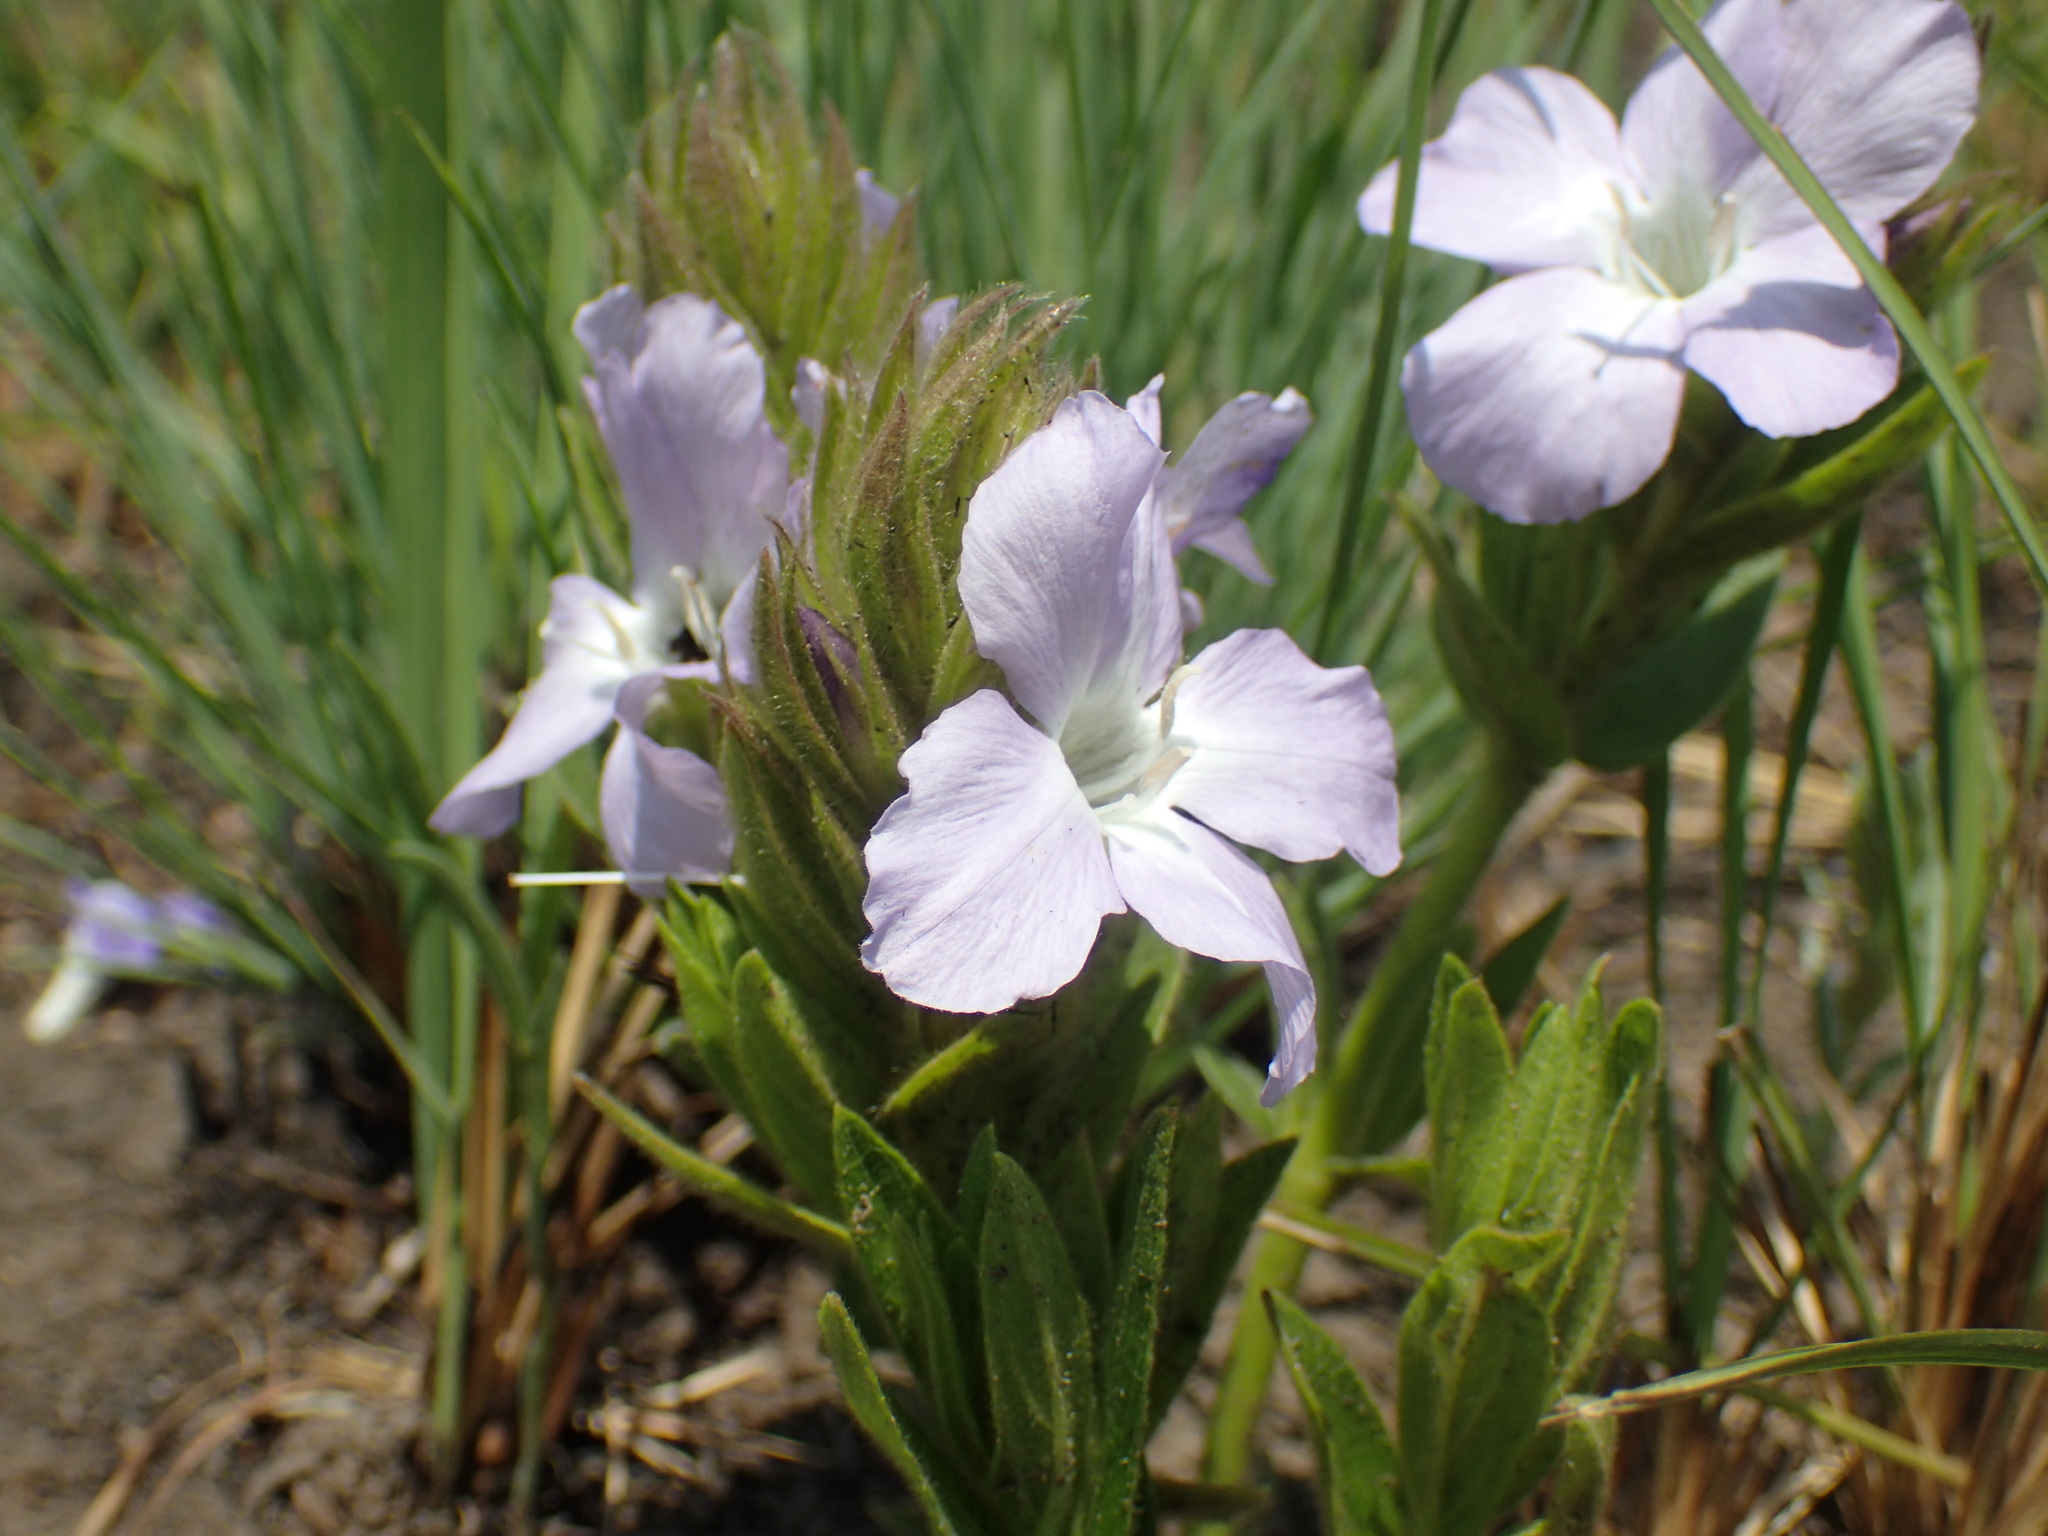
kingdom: Plantae
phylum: Tracheophyta
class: Magnoliopsida
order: Lamiales
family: Acanthaceae
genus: Barleria
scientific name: Barleria monticola
